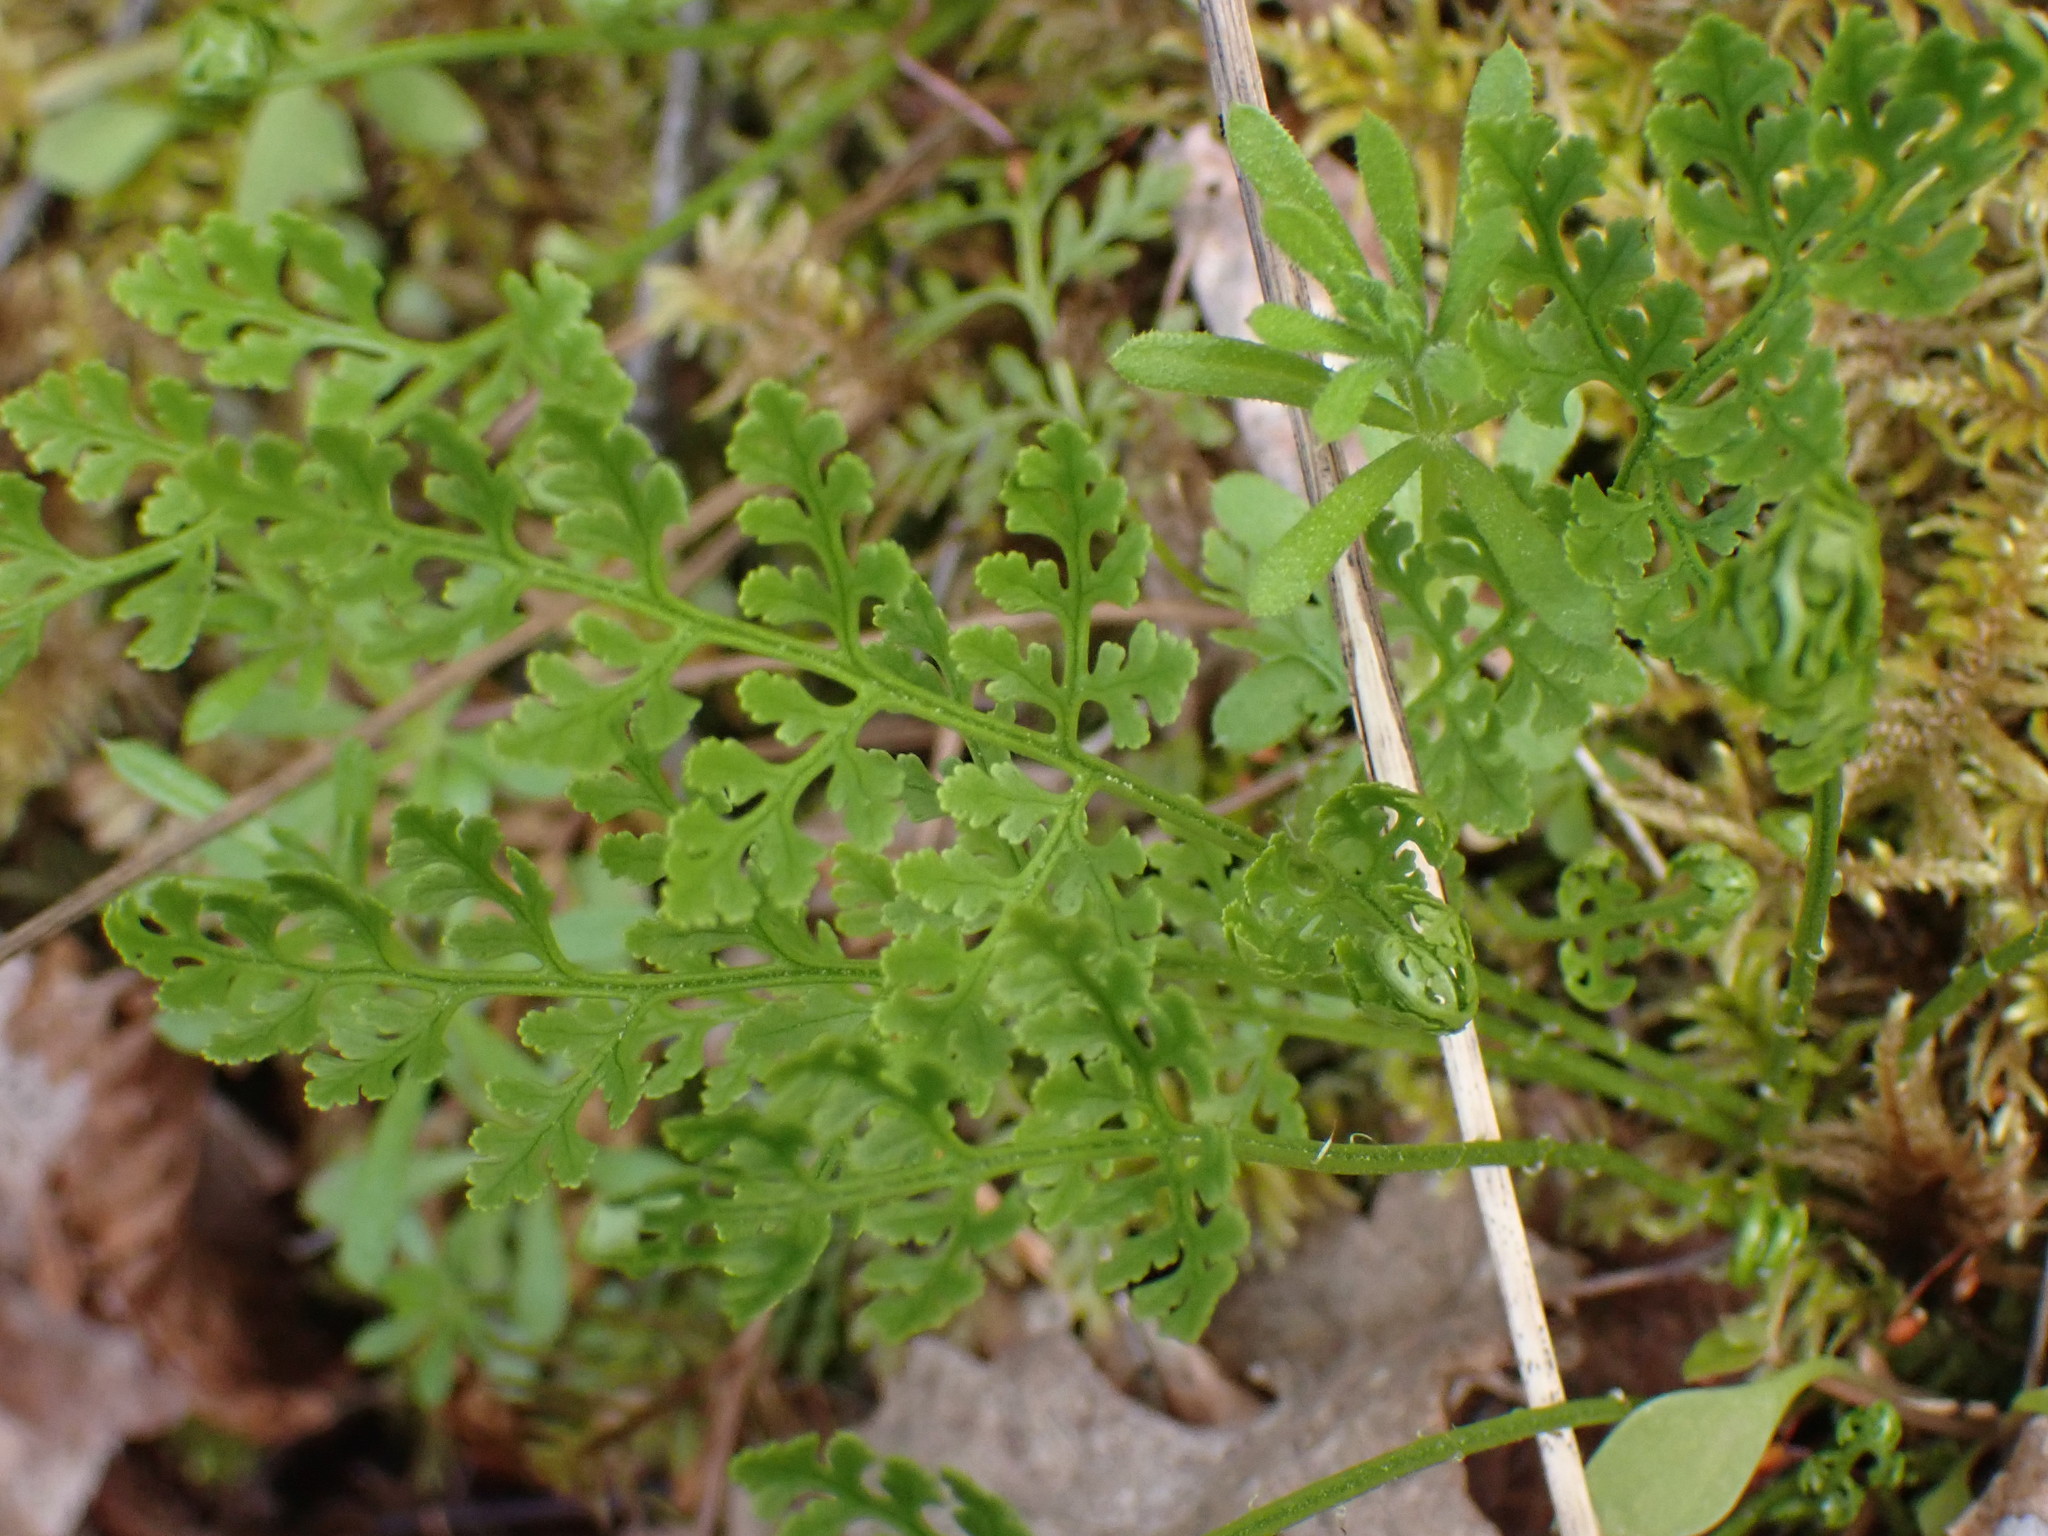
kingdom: Plantae
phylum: Tracheophyta
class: Polypodiopsida
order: Polypodiales
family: Pteridaceae
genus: Cryptogramma
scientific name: Cryptogramma acrostichoides
